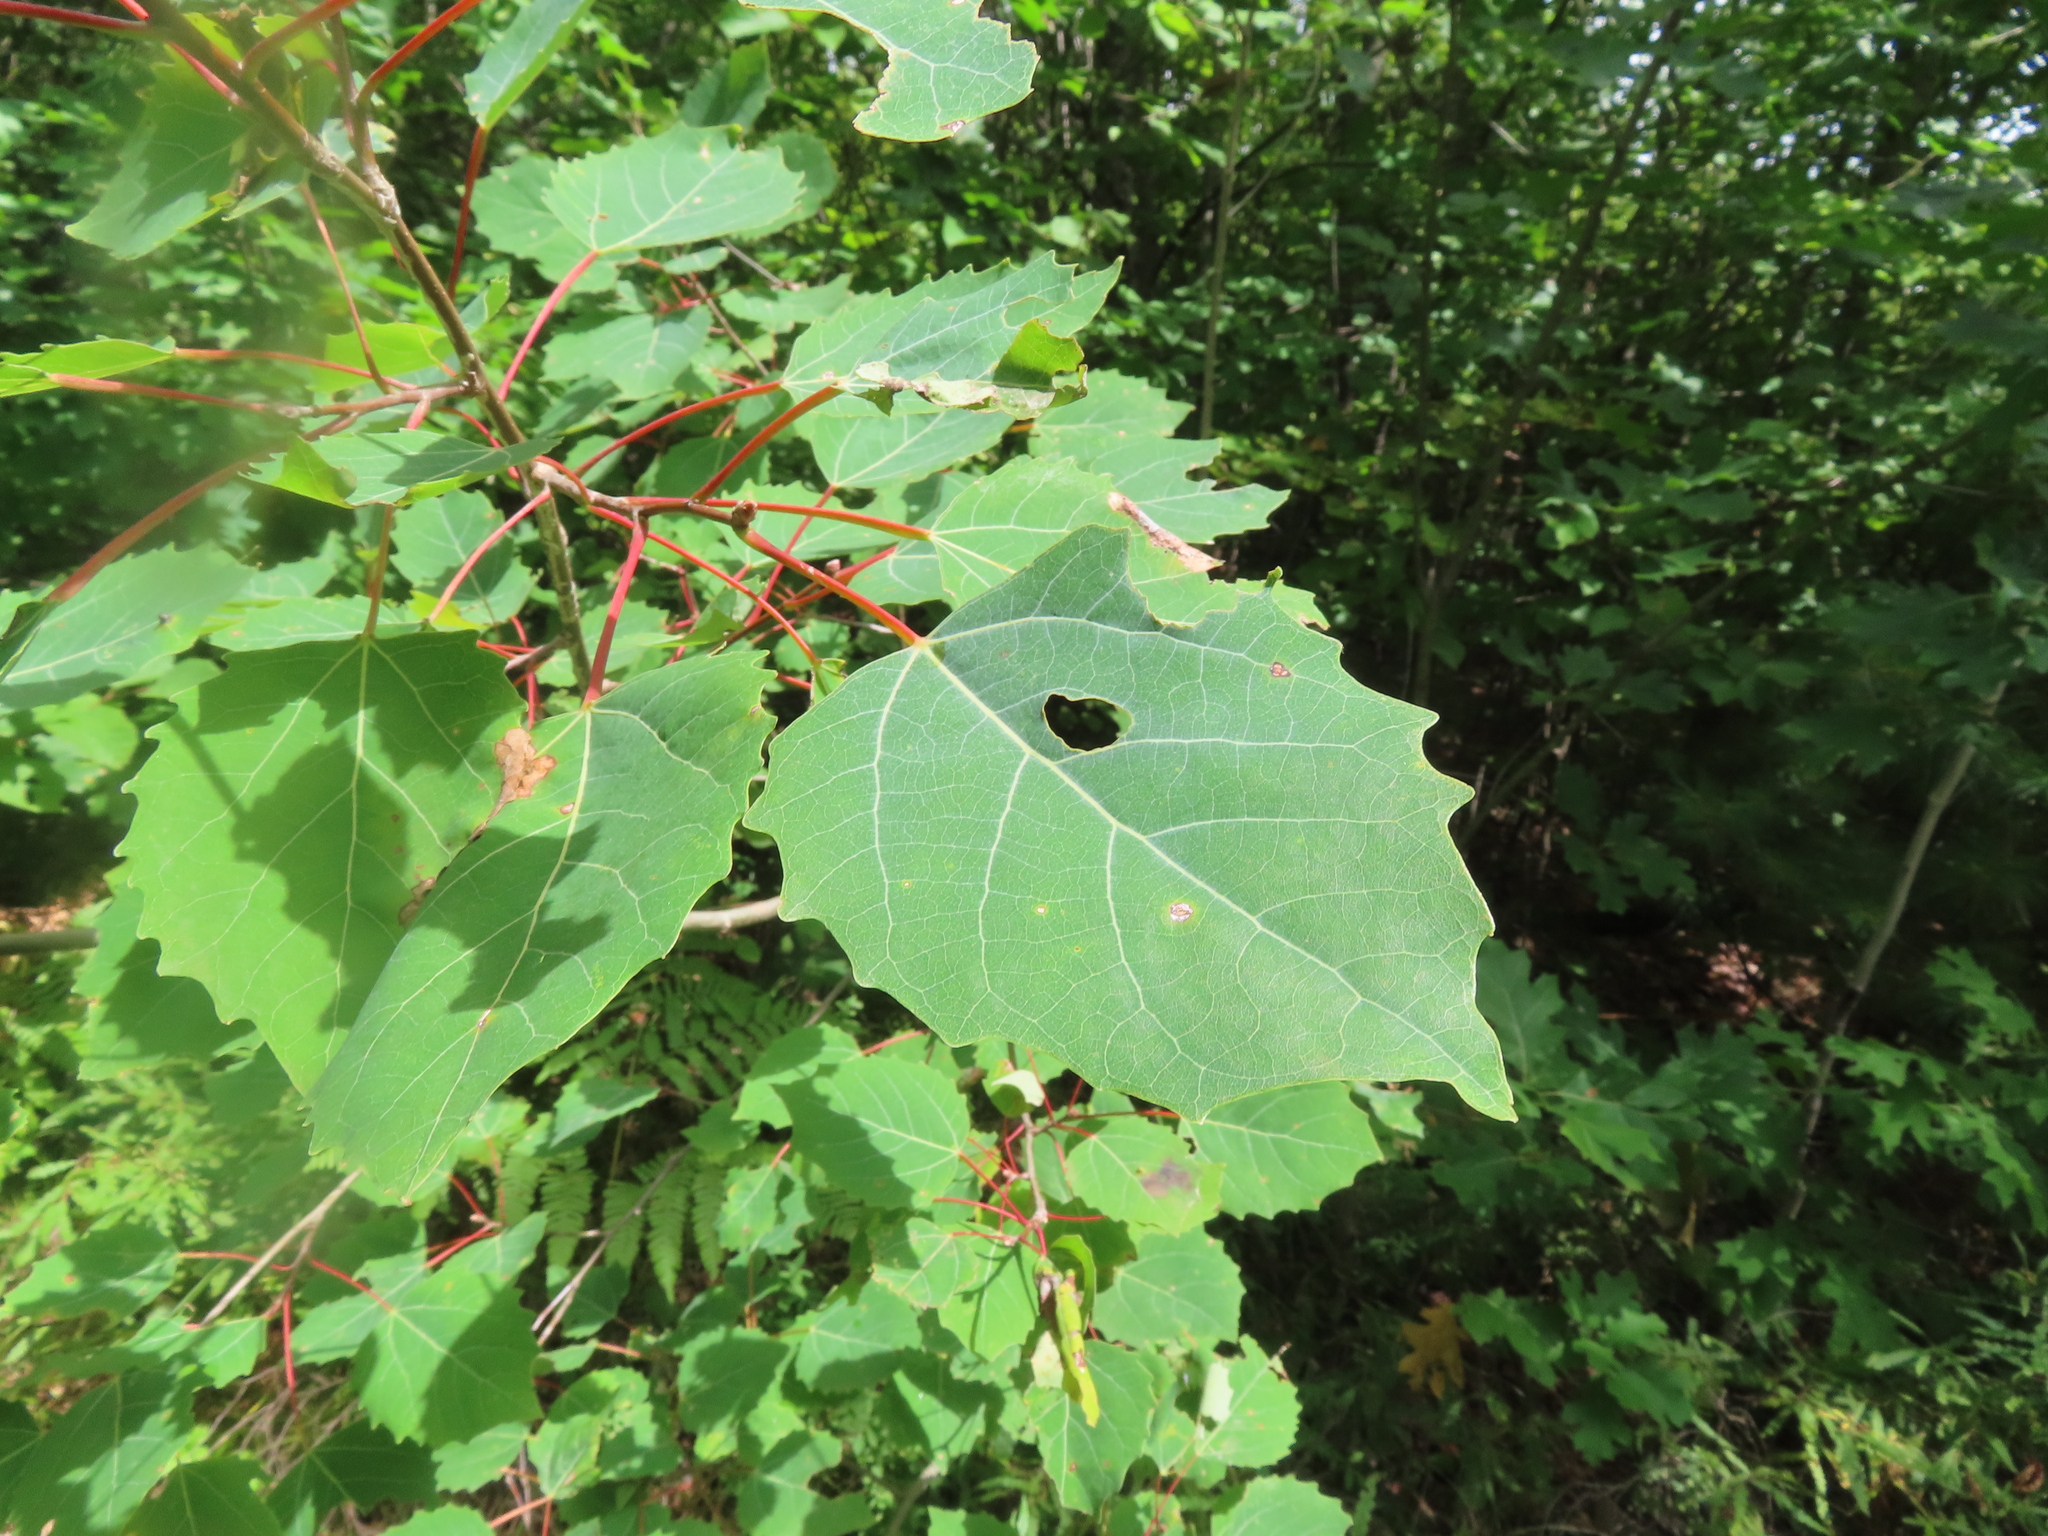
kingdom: Plantae
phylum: Tracheophyta
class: Magnoliopsida
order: Malpighiales
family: Salicaceae
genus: Populus
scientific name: Populus grandidentata
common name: Bigtooth aspen
